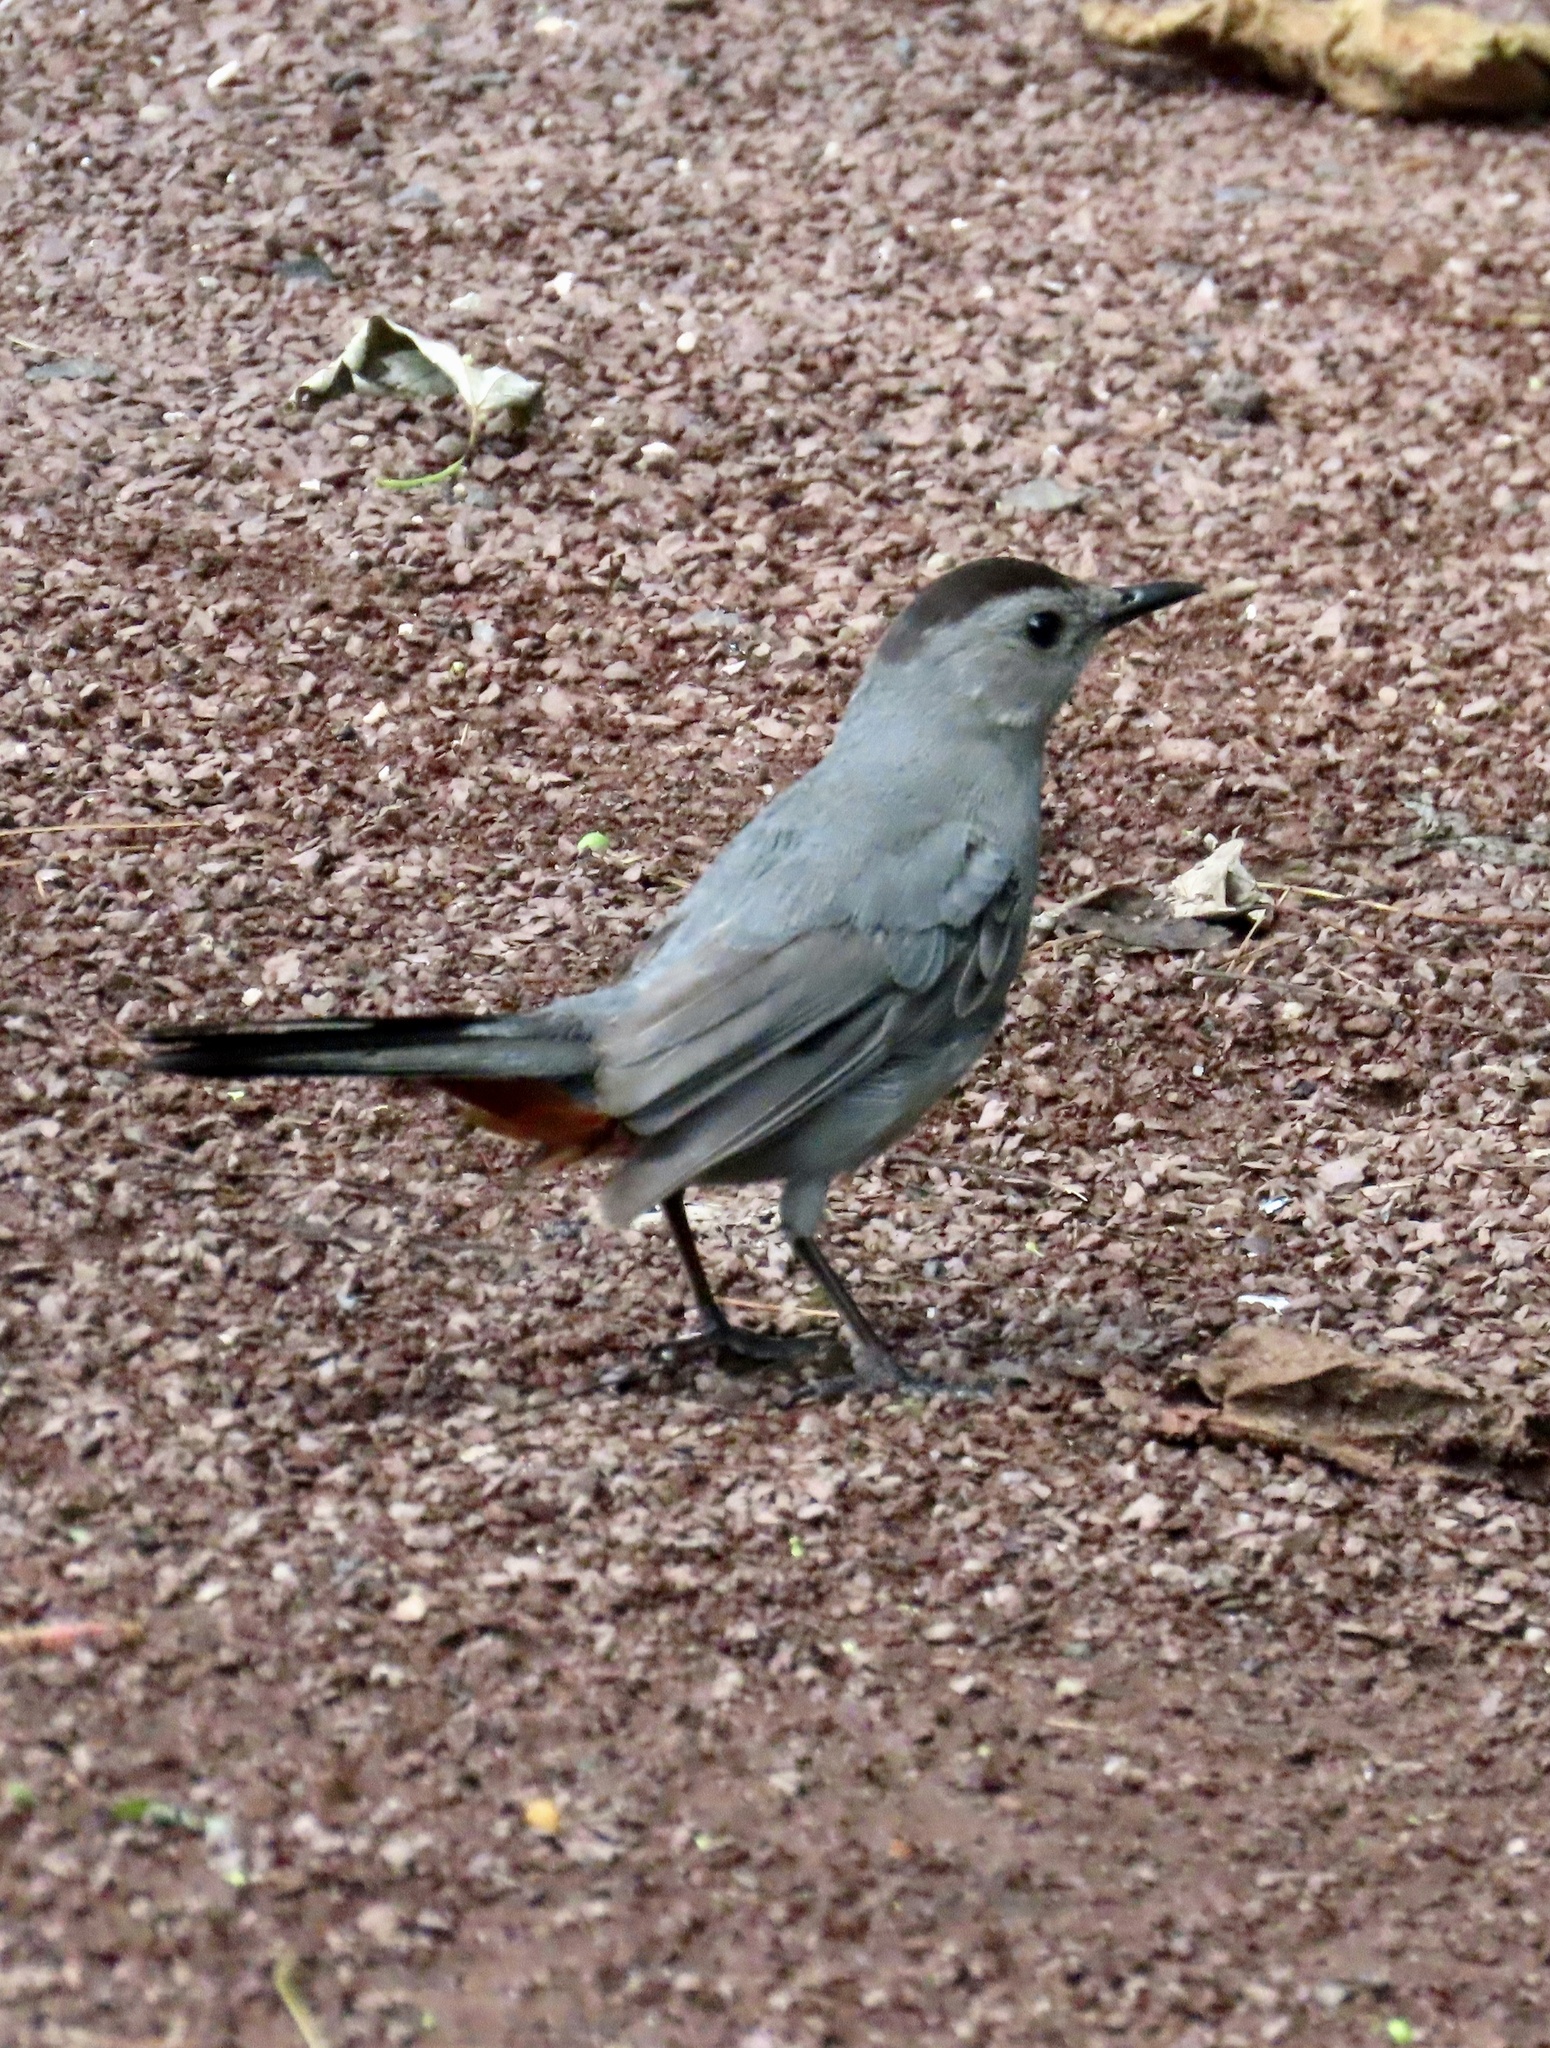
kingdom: Animalia
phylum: Chordata
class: Aves
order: Passeriformes
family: Mimidae
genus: Dumetella
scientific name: Dumetella carolinensis
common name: Gray catbird
